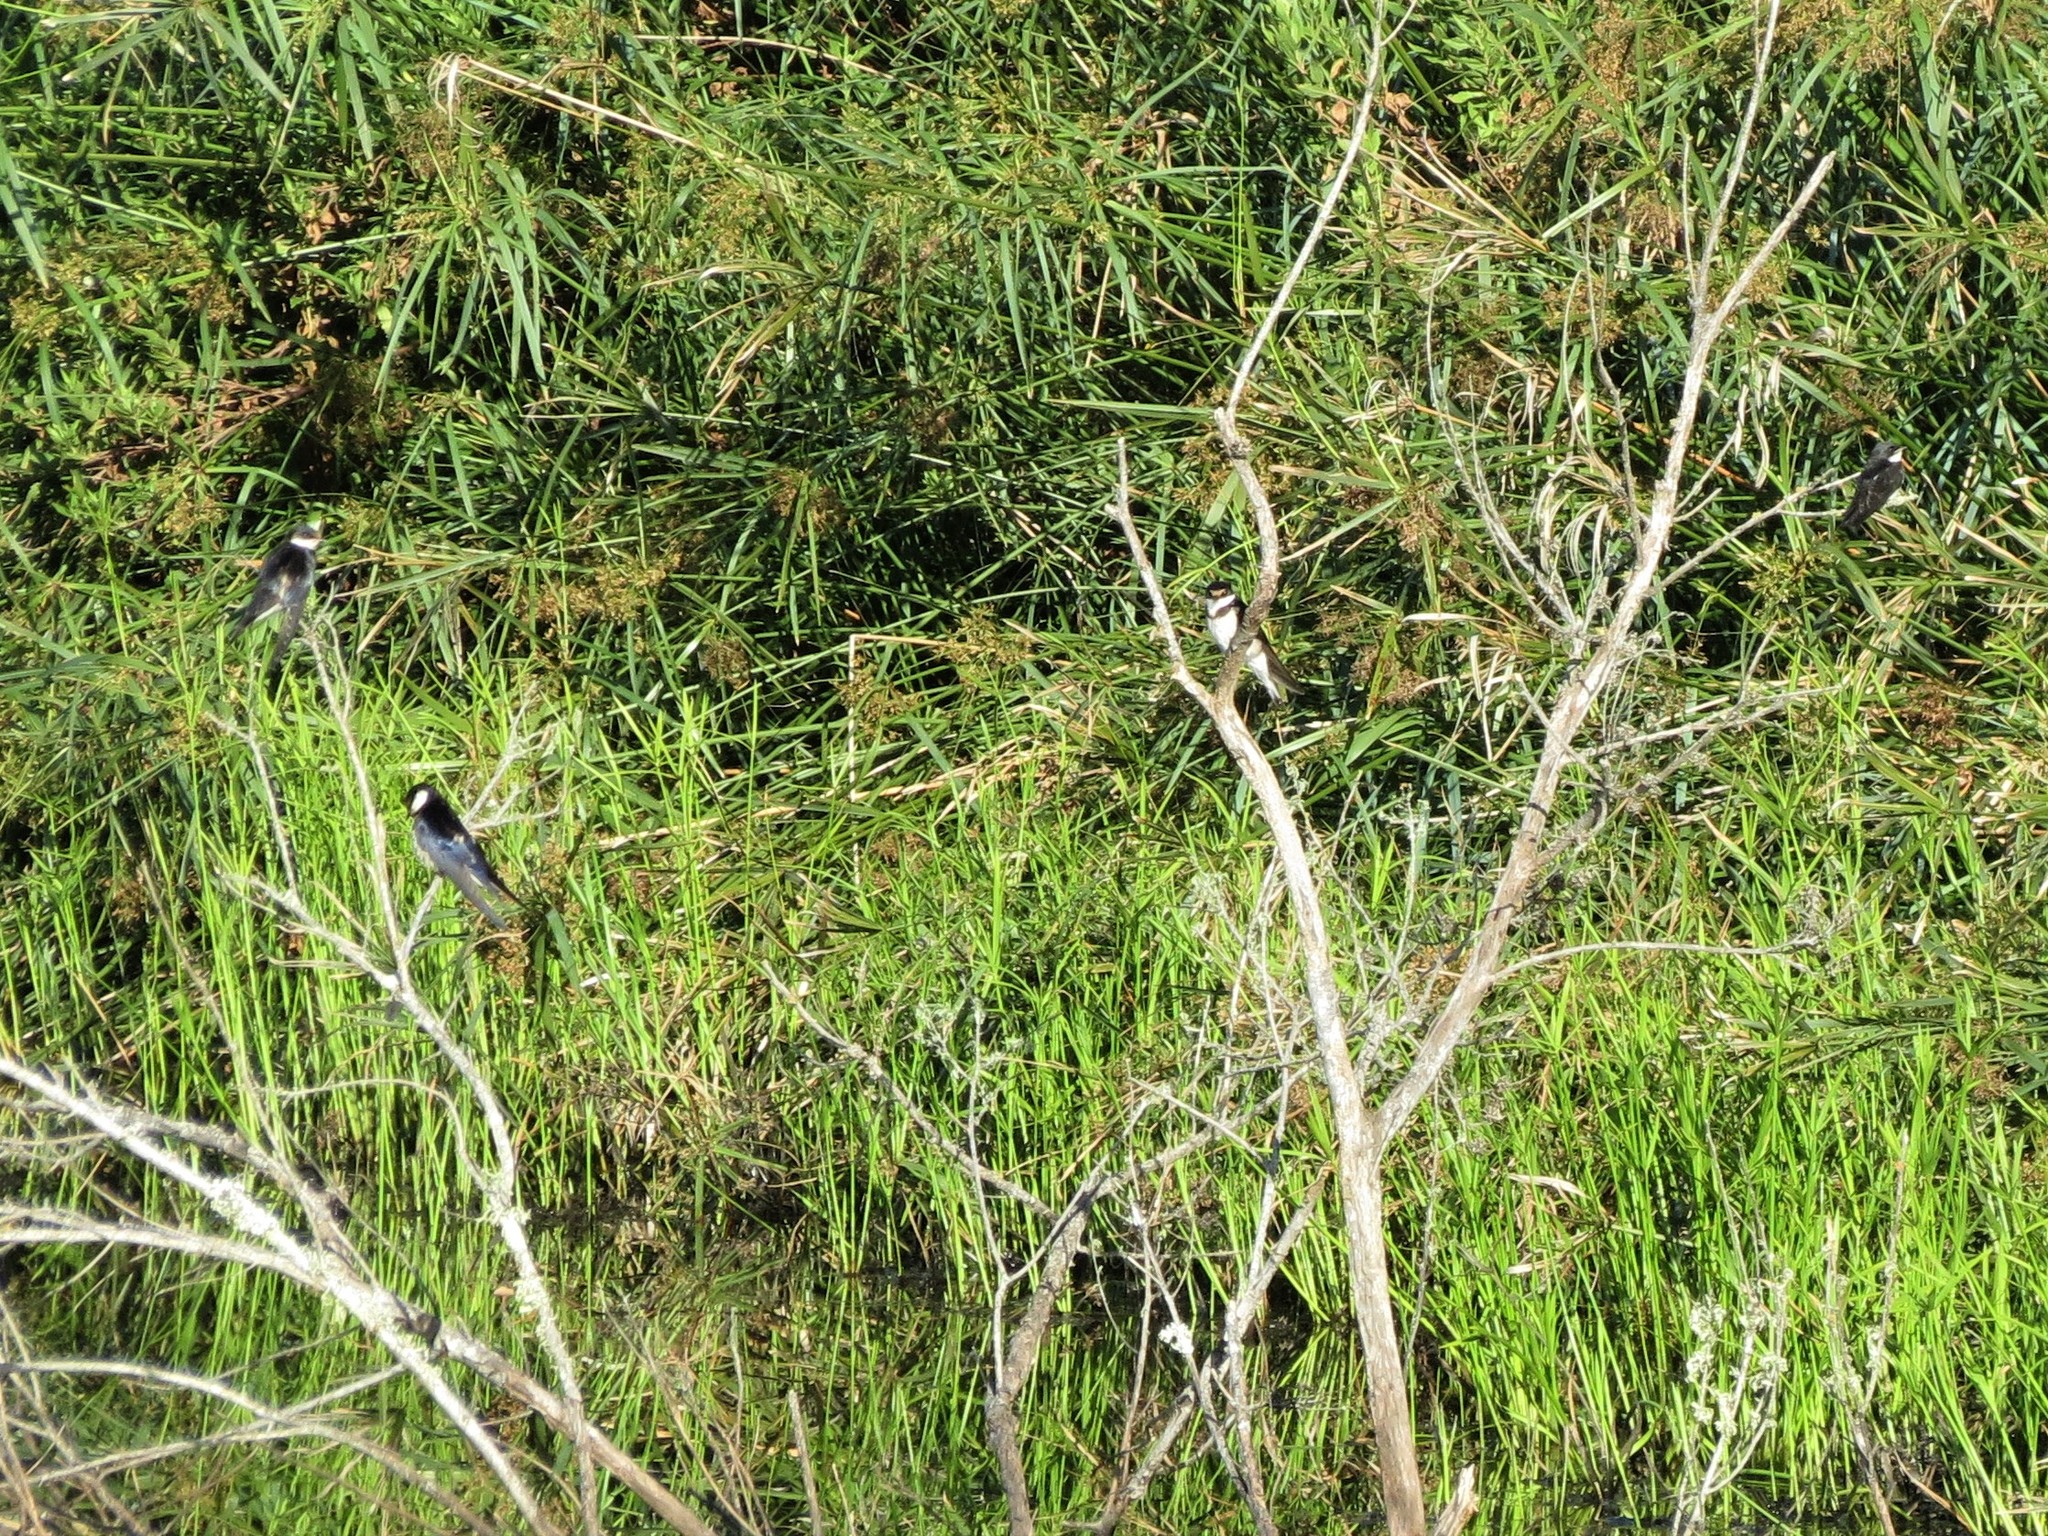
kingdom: Animalia
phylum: Chordata
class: Aves
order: Passeriformes
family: Hirundinidae
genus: Hirundo
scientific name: Hirundo albigularis
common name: White-throated swallow
